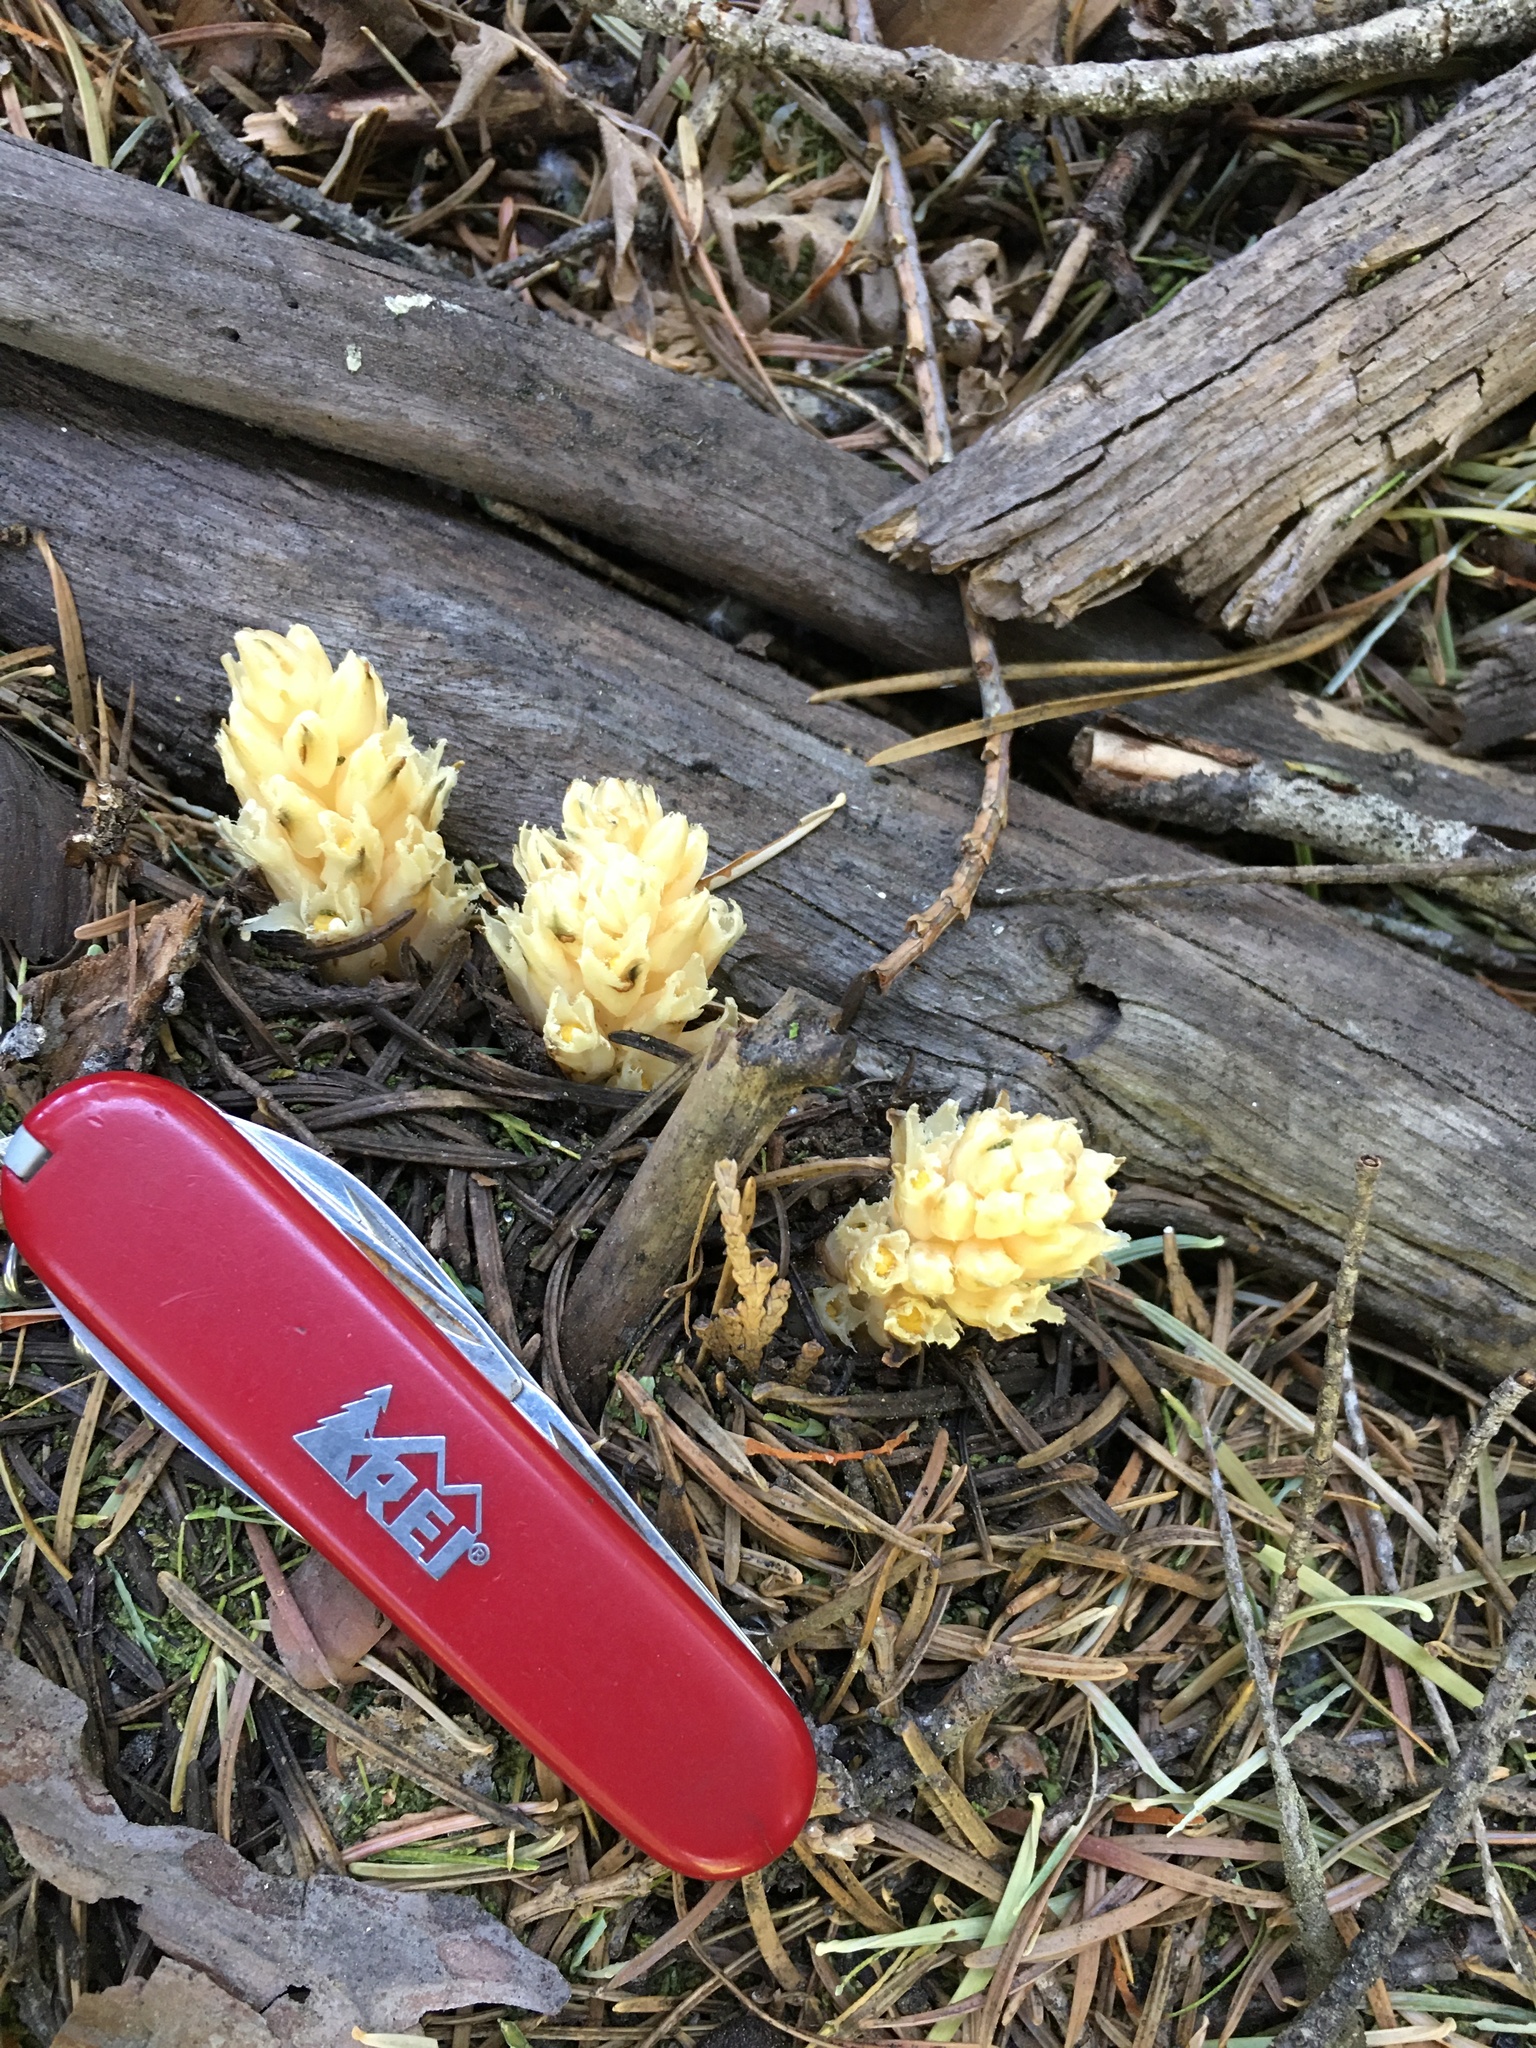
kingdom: Plantae
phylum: Tracheophyta
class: Magnoliopsida
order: Ericales
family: Ericaceae
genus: Pleuricospora
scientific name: Pleuricospora fimbriolata
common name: Fringed pinesap
